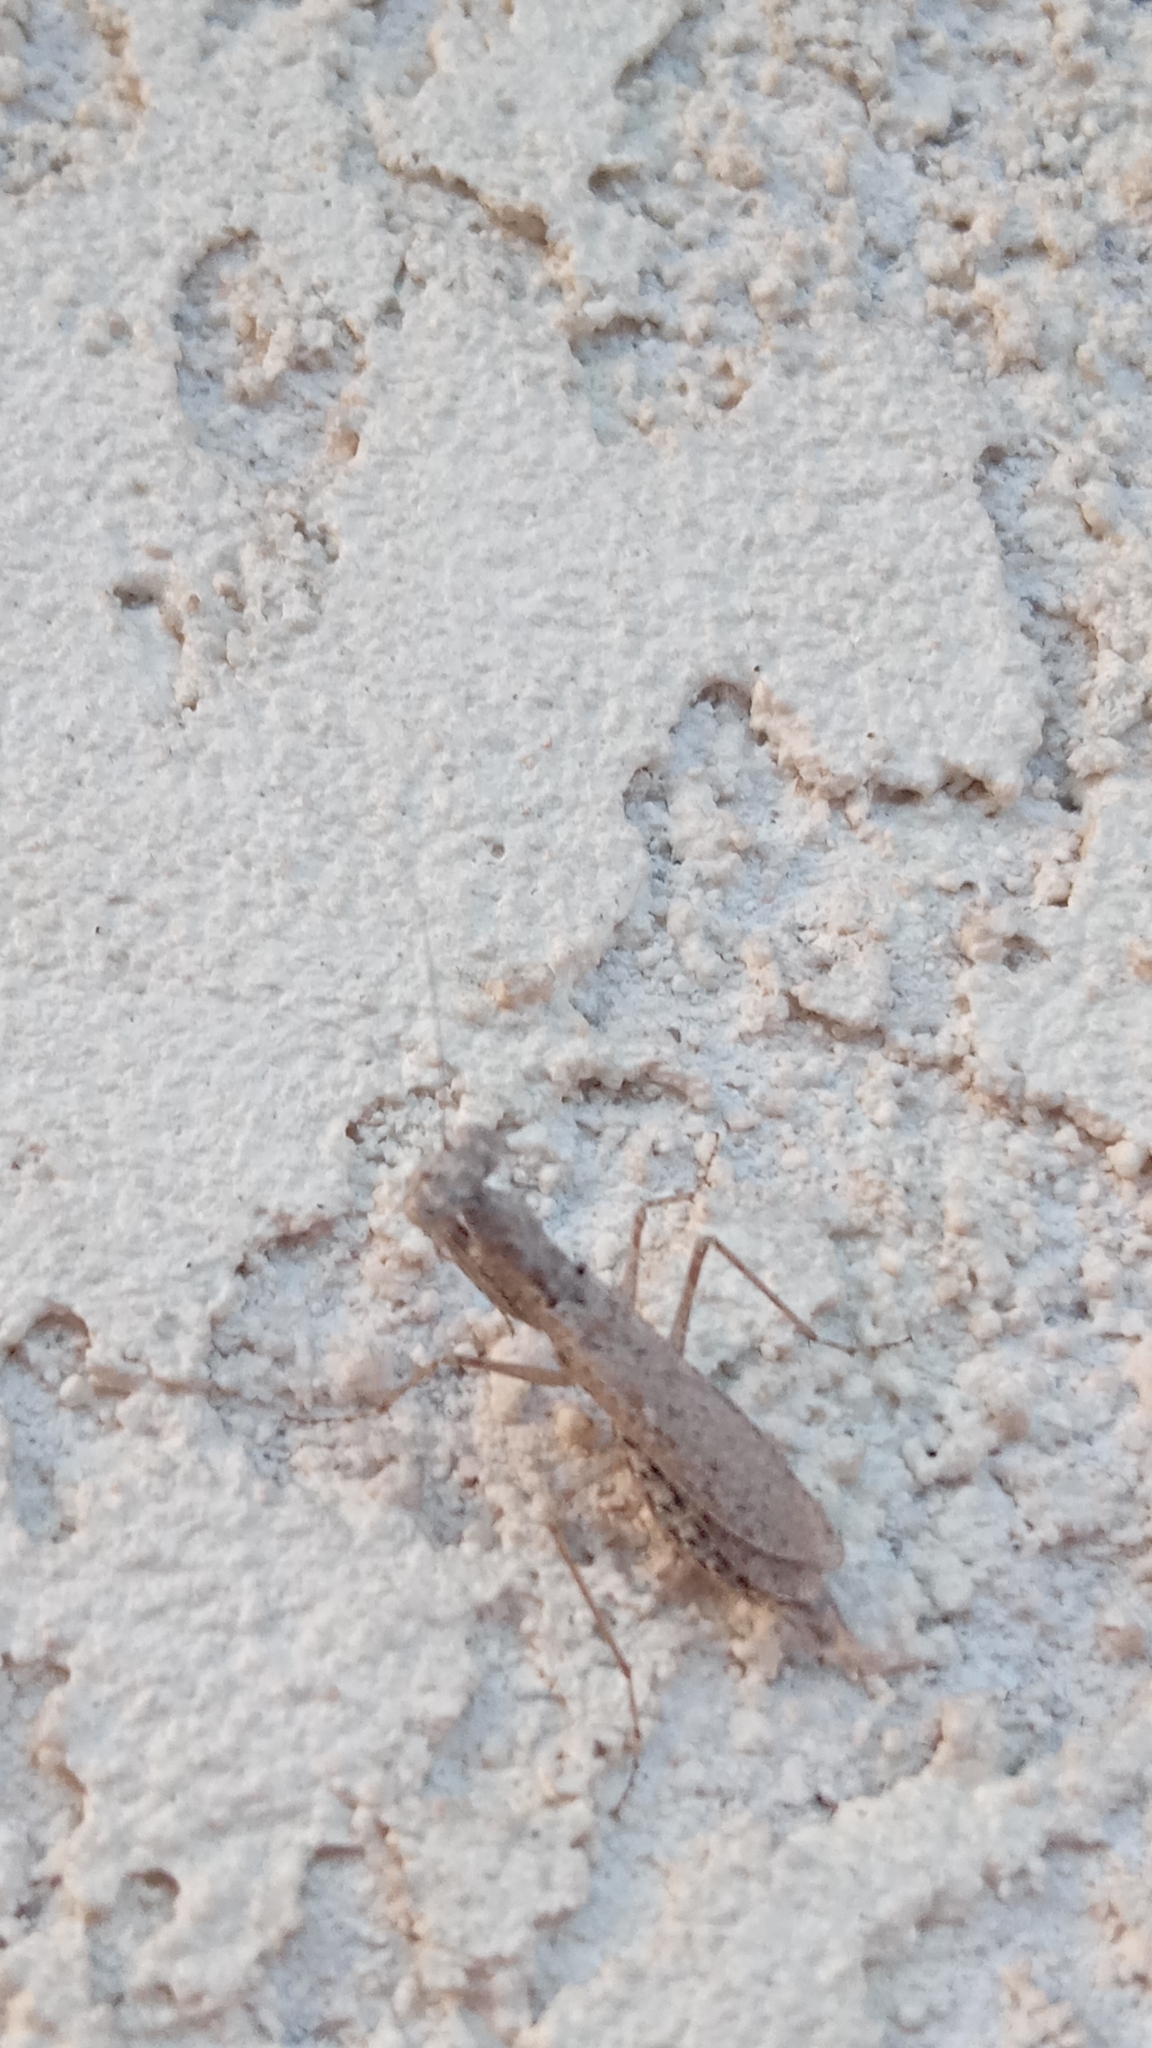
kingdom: Animalia
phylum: Arthropoda
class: Insecta
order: Mantodea
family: Gonypetidae
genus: Armene
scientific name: Armene pusilla
